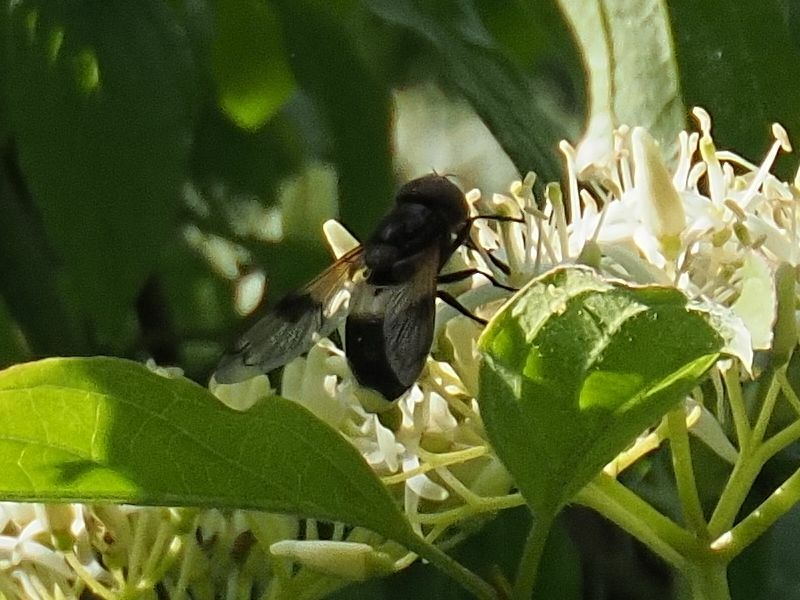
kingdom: Animalia
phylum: Arthropoda
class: Insecta
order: Diptera
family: Syrphidae
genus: Volucella
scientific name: Volucella pellucens
